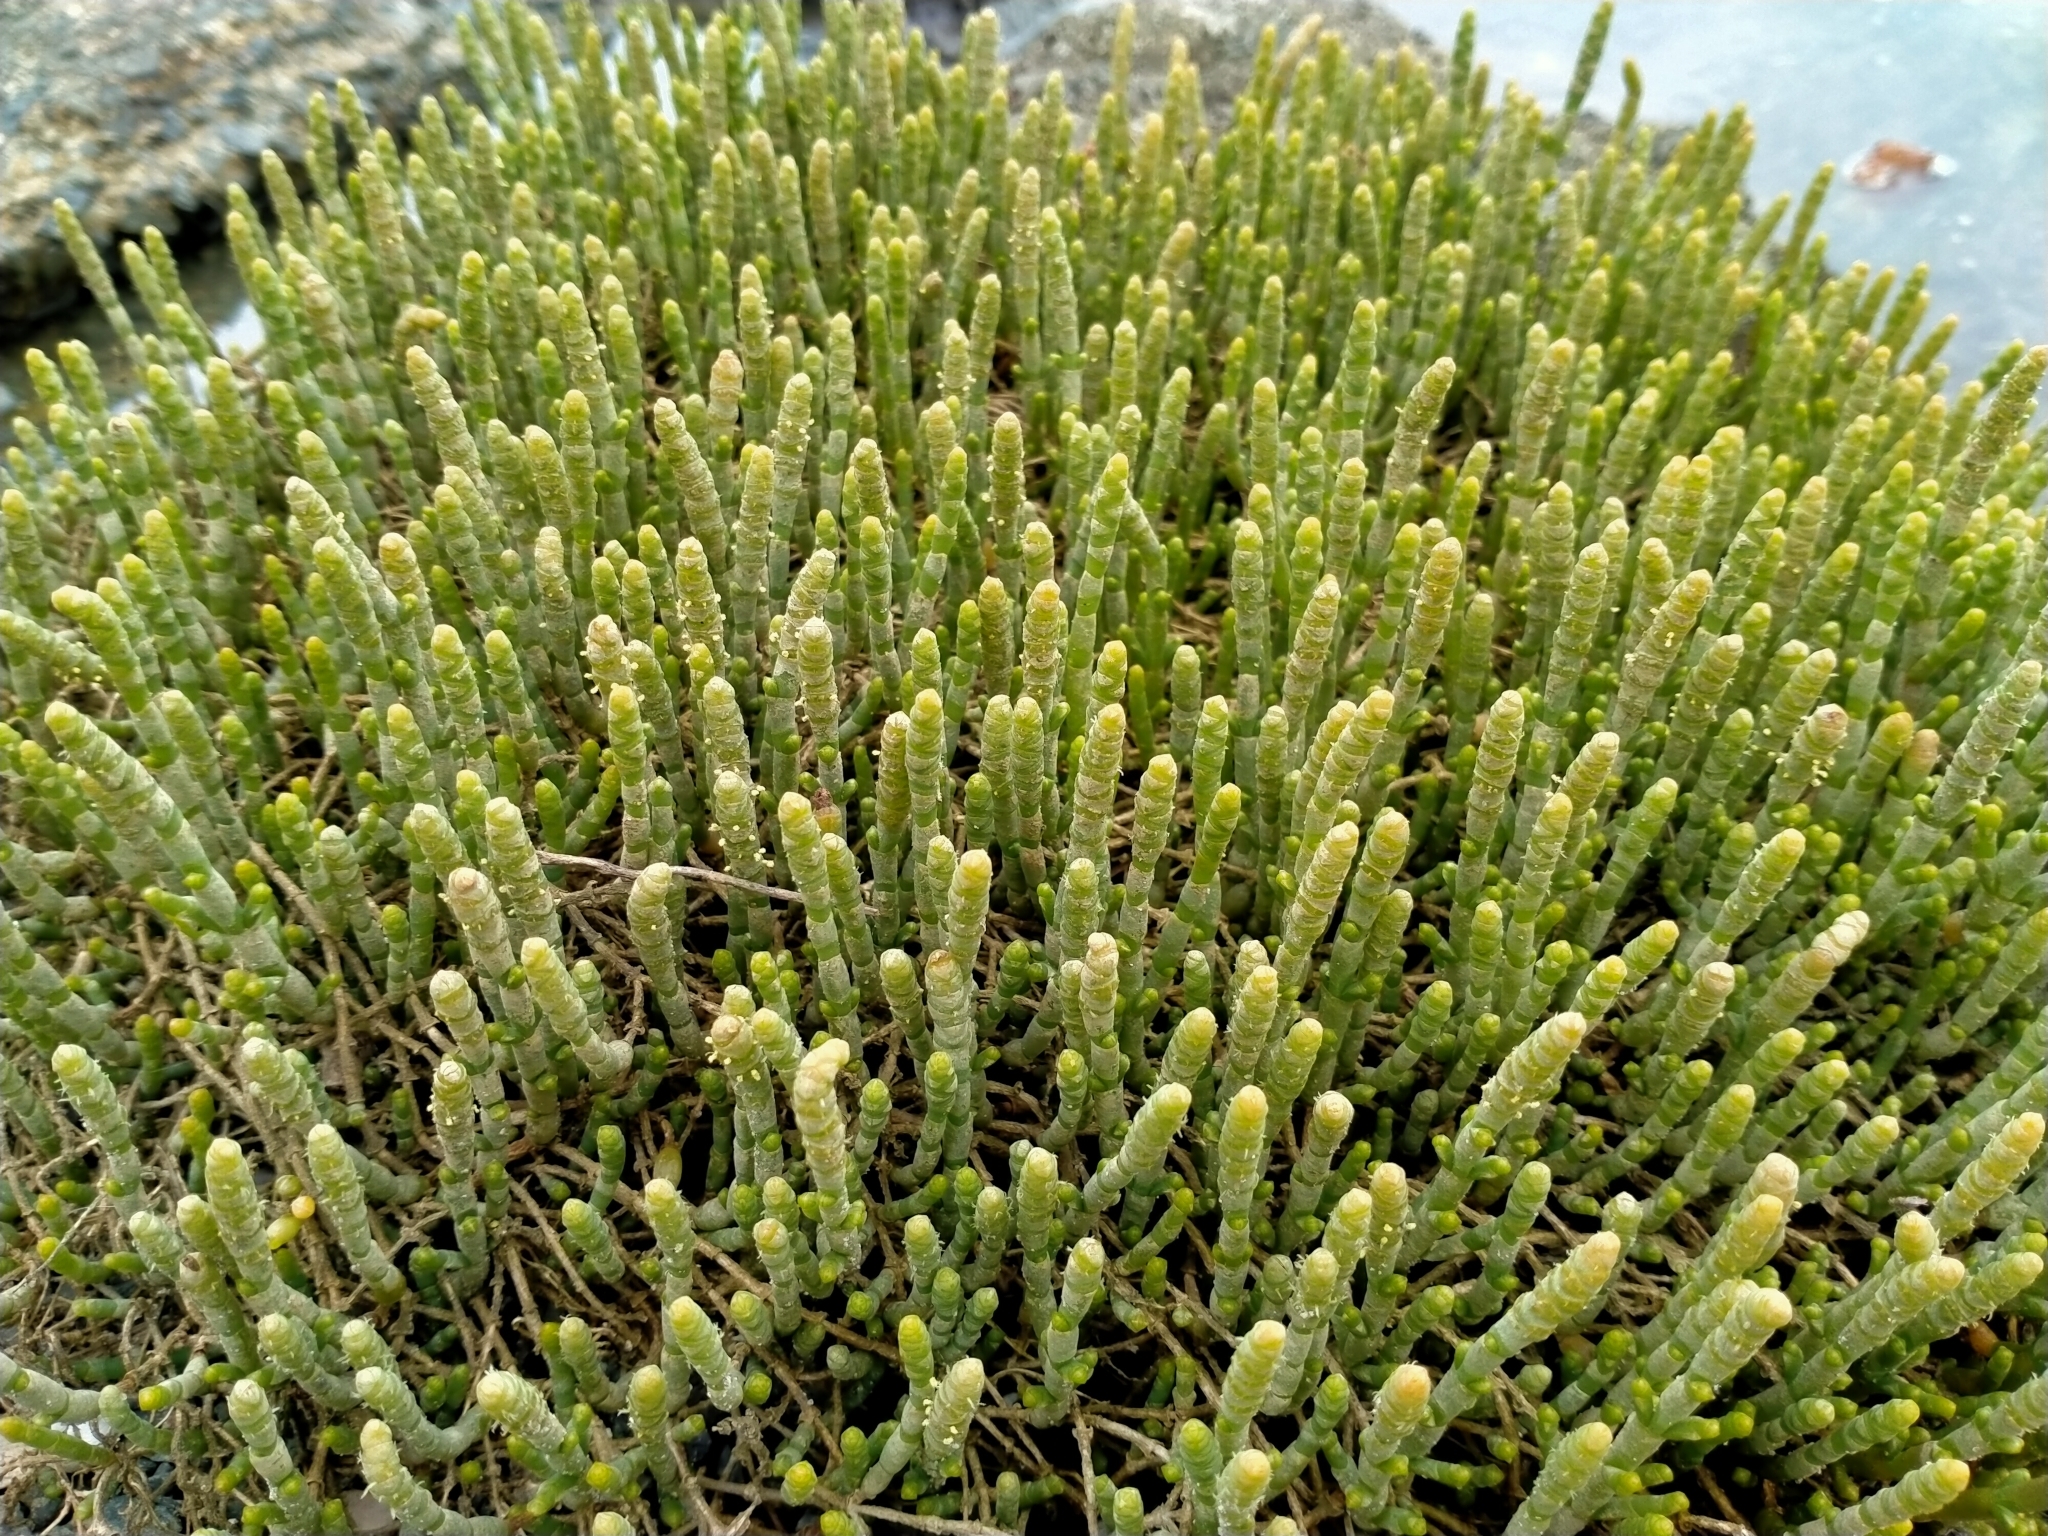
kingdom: Plantae
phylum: Tracheophyta
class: Magnoliopsida
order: Caryophyllales
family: Amaranthaceae
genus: Salicornia
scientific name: Salicornia quinqueflora
